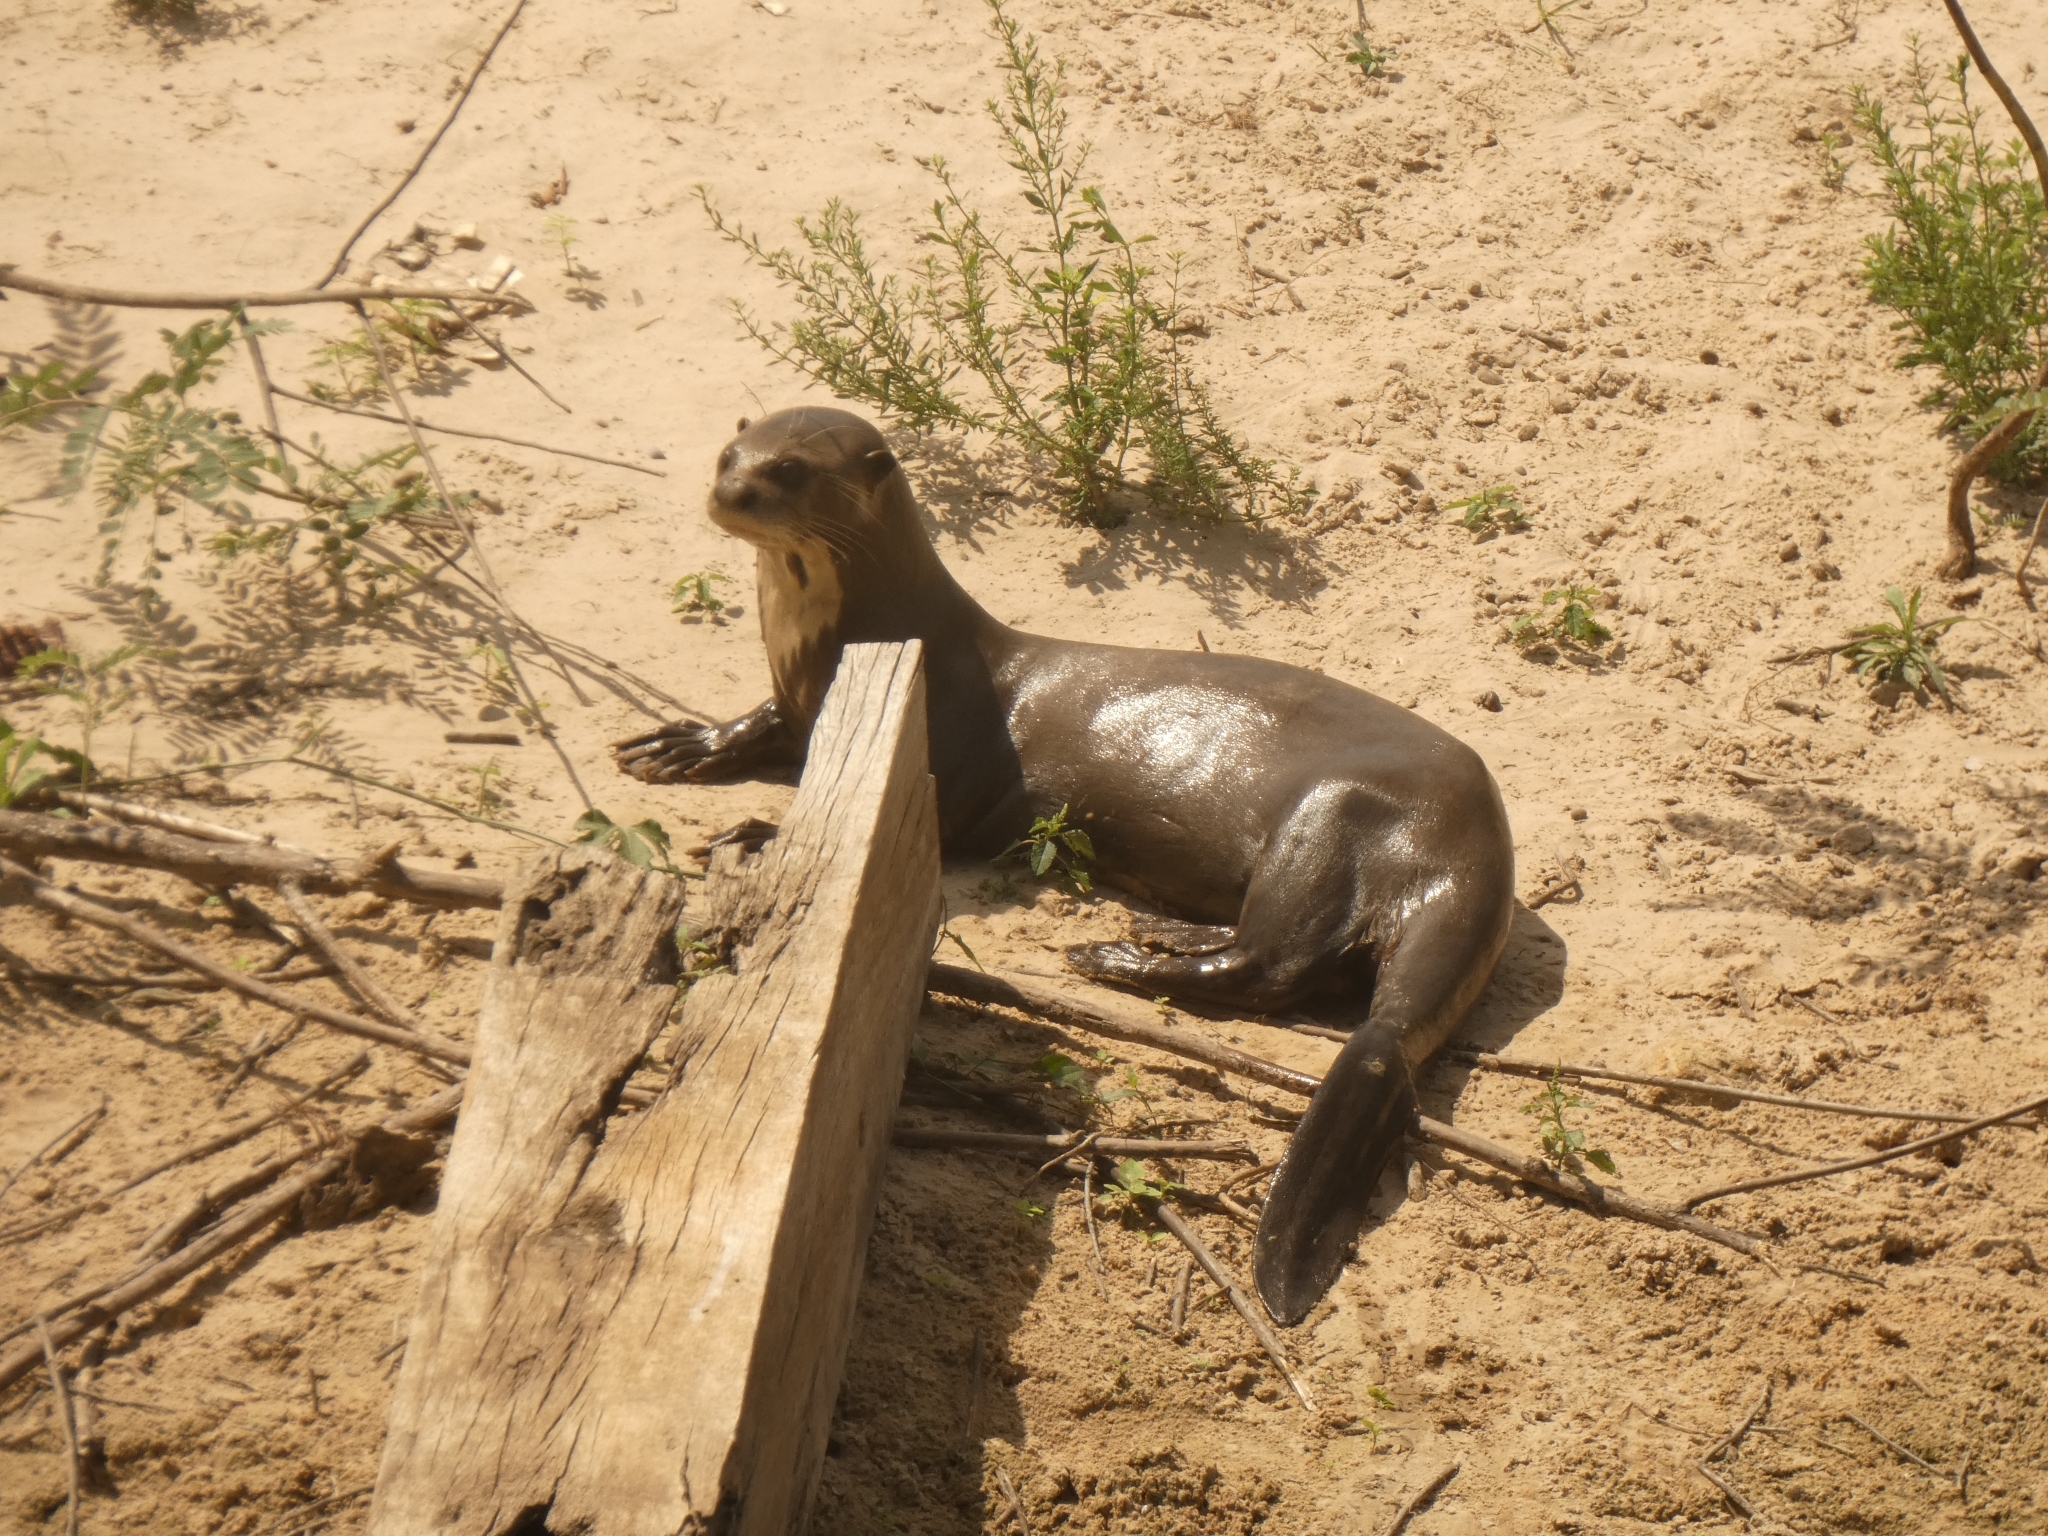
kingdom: Animalia
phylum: Chordata
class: Mammalia
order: Carnivora
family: Mustelidae
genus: Pteronura
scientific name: Pteronura brasiliensis
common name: Giant otter
